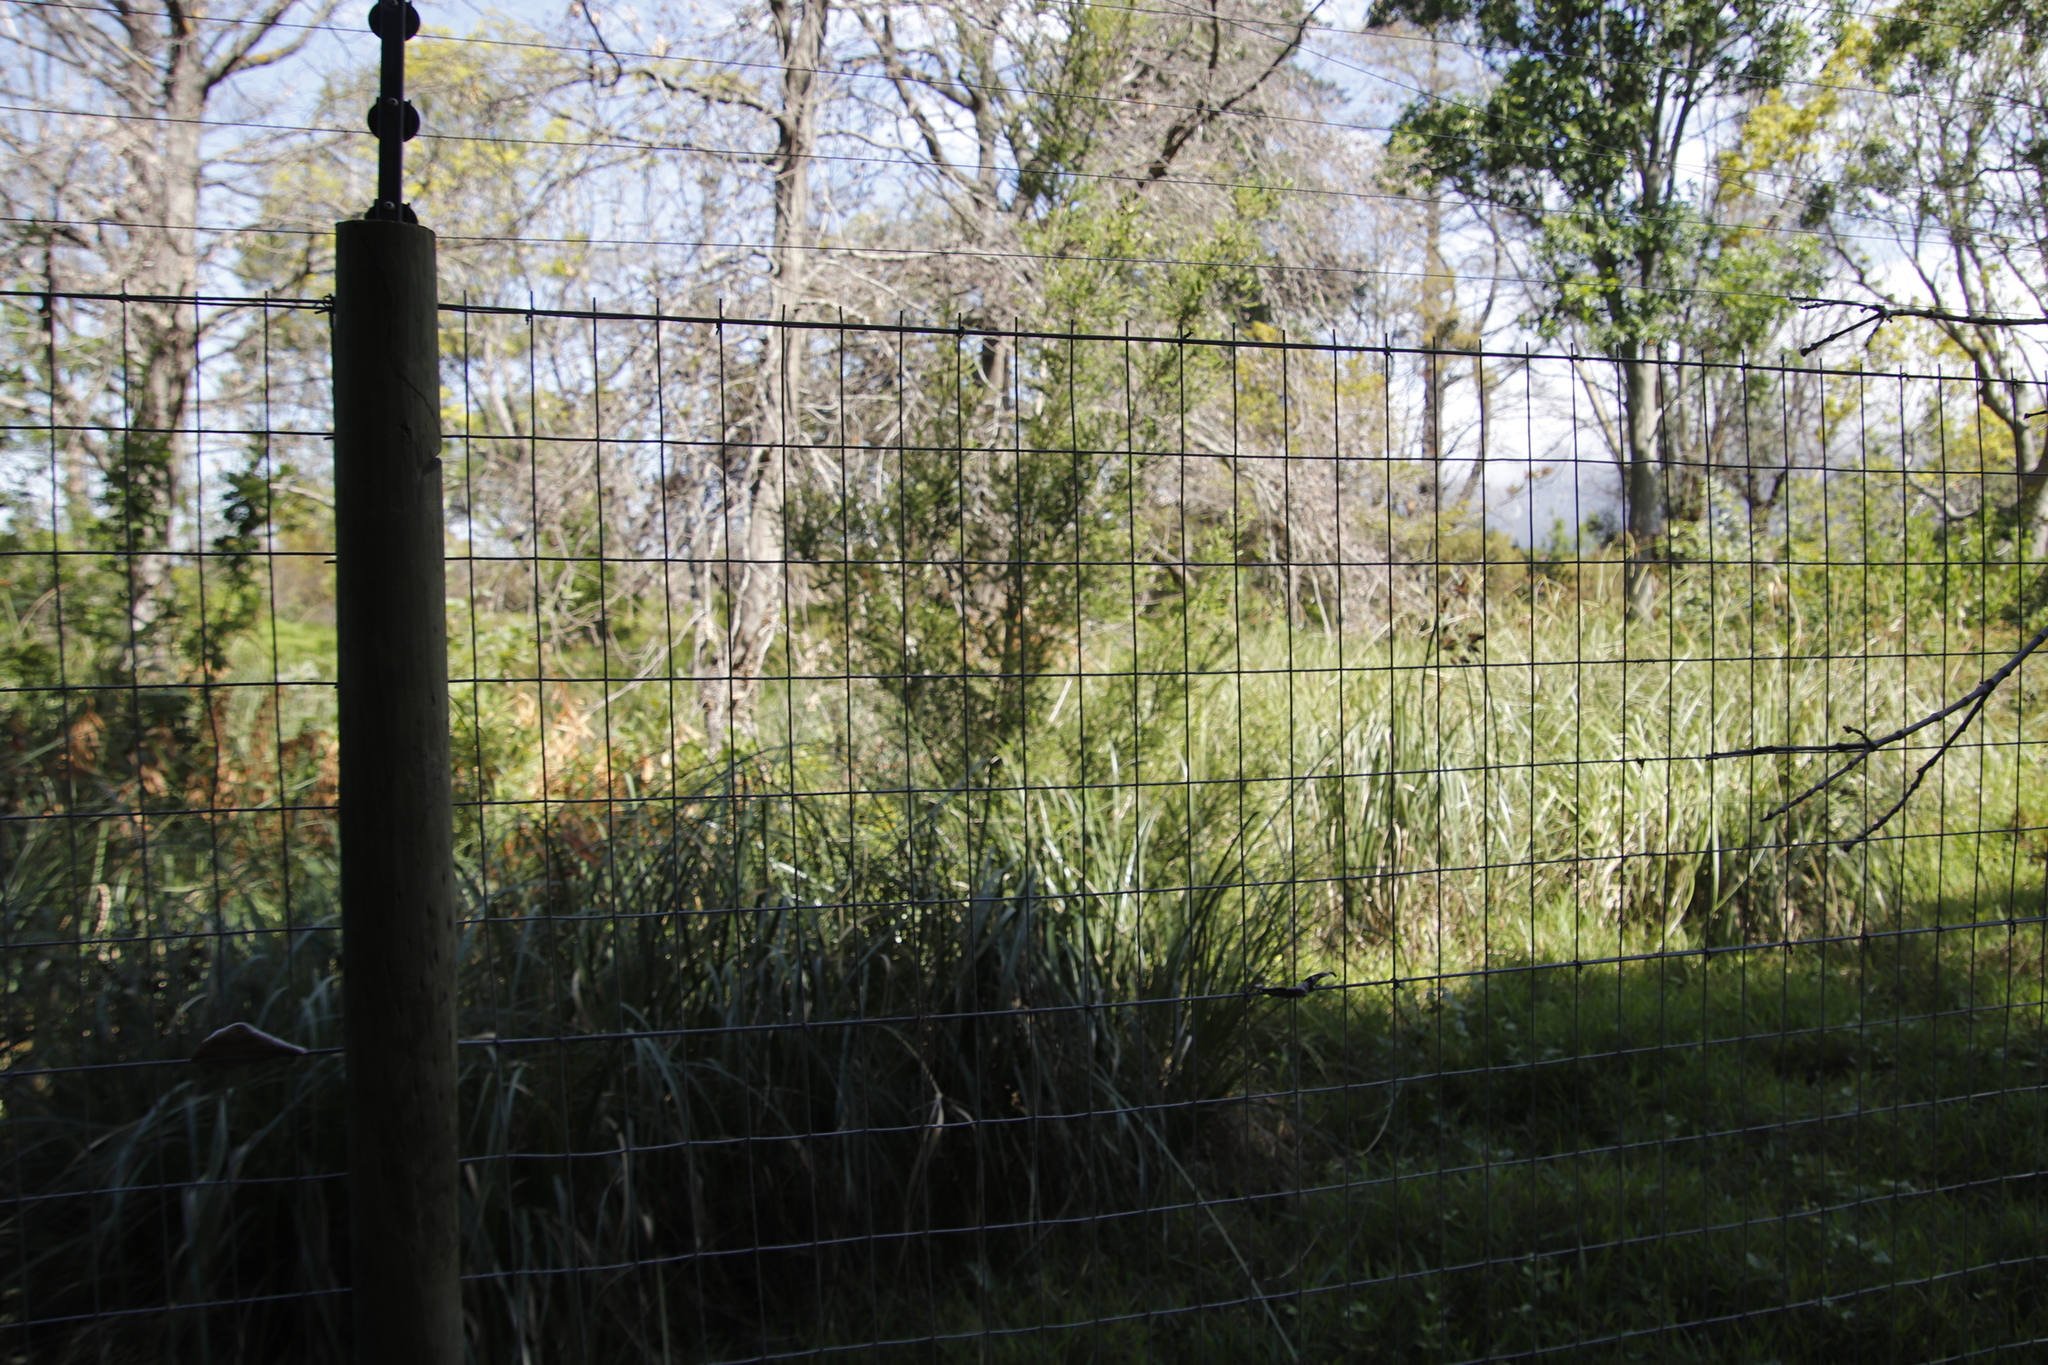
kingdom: Plantae
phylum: Tracheophyta
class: Magnoliopsida
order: Myrtales
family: Myrtaceae
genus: Melaleuca
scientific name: Melaleuca styphelioides
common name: Prickly paperbark
